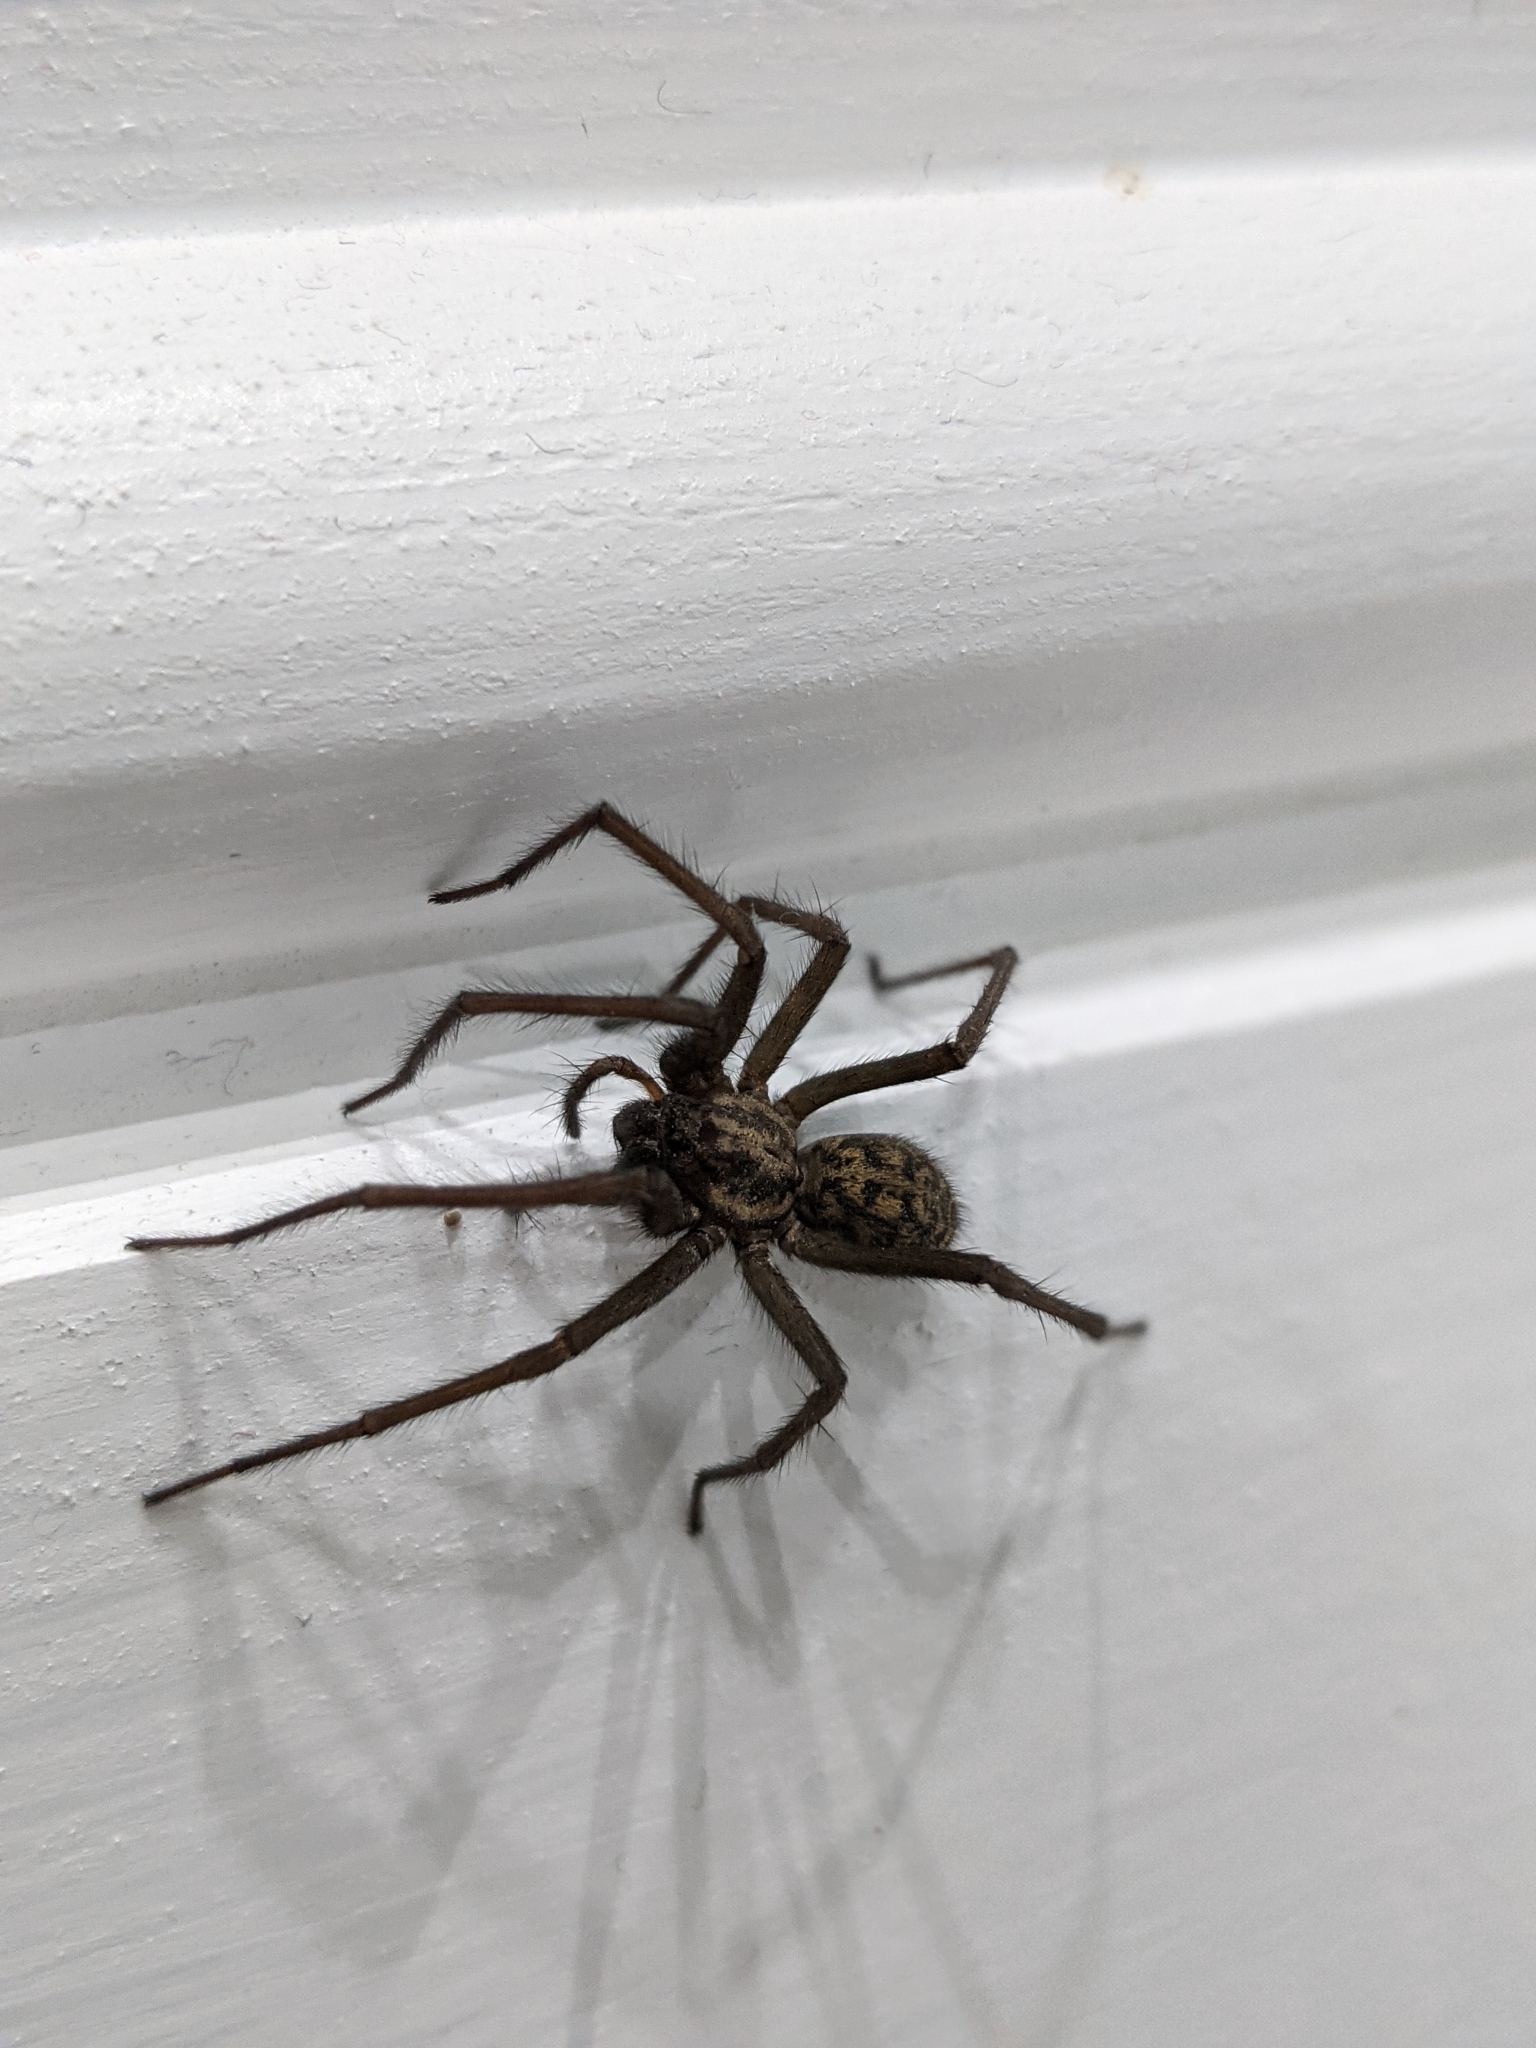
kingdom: Animalia
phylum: Arthropoda
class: Arachnida
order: Araneae
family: Agelenidae
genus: Eratigena
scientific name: Eratigena duellica
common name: Giant house spider
